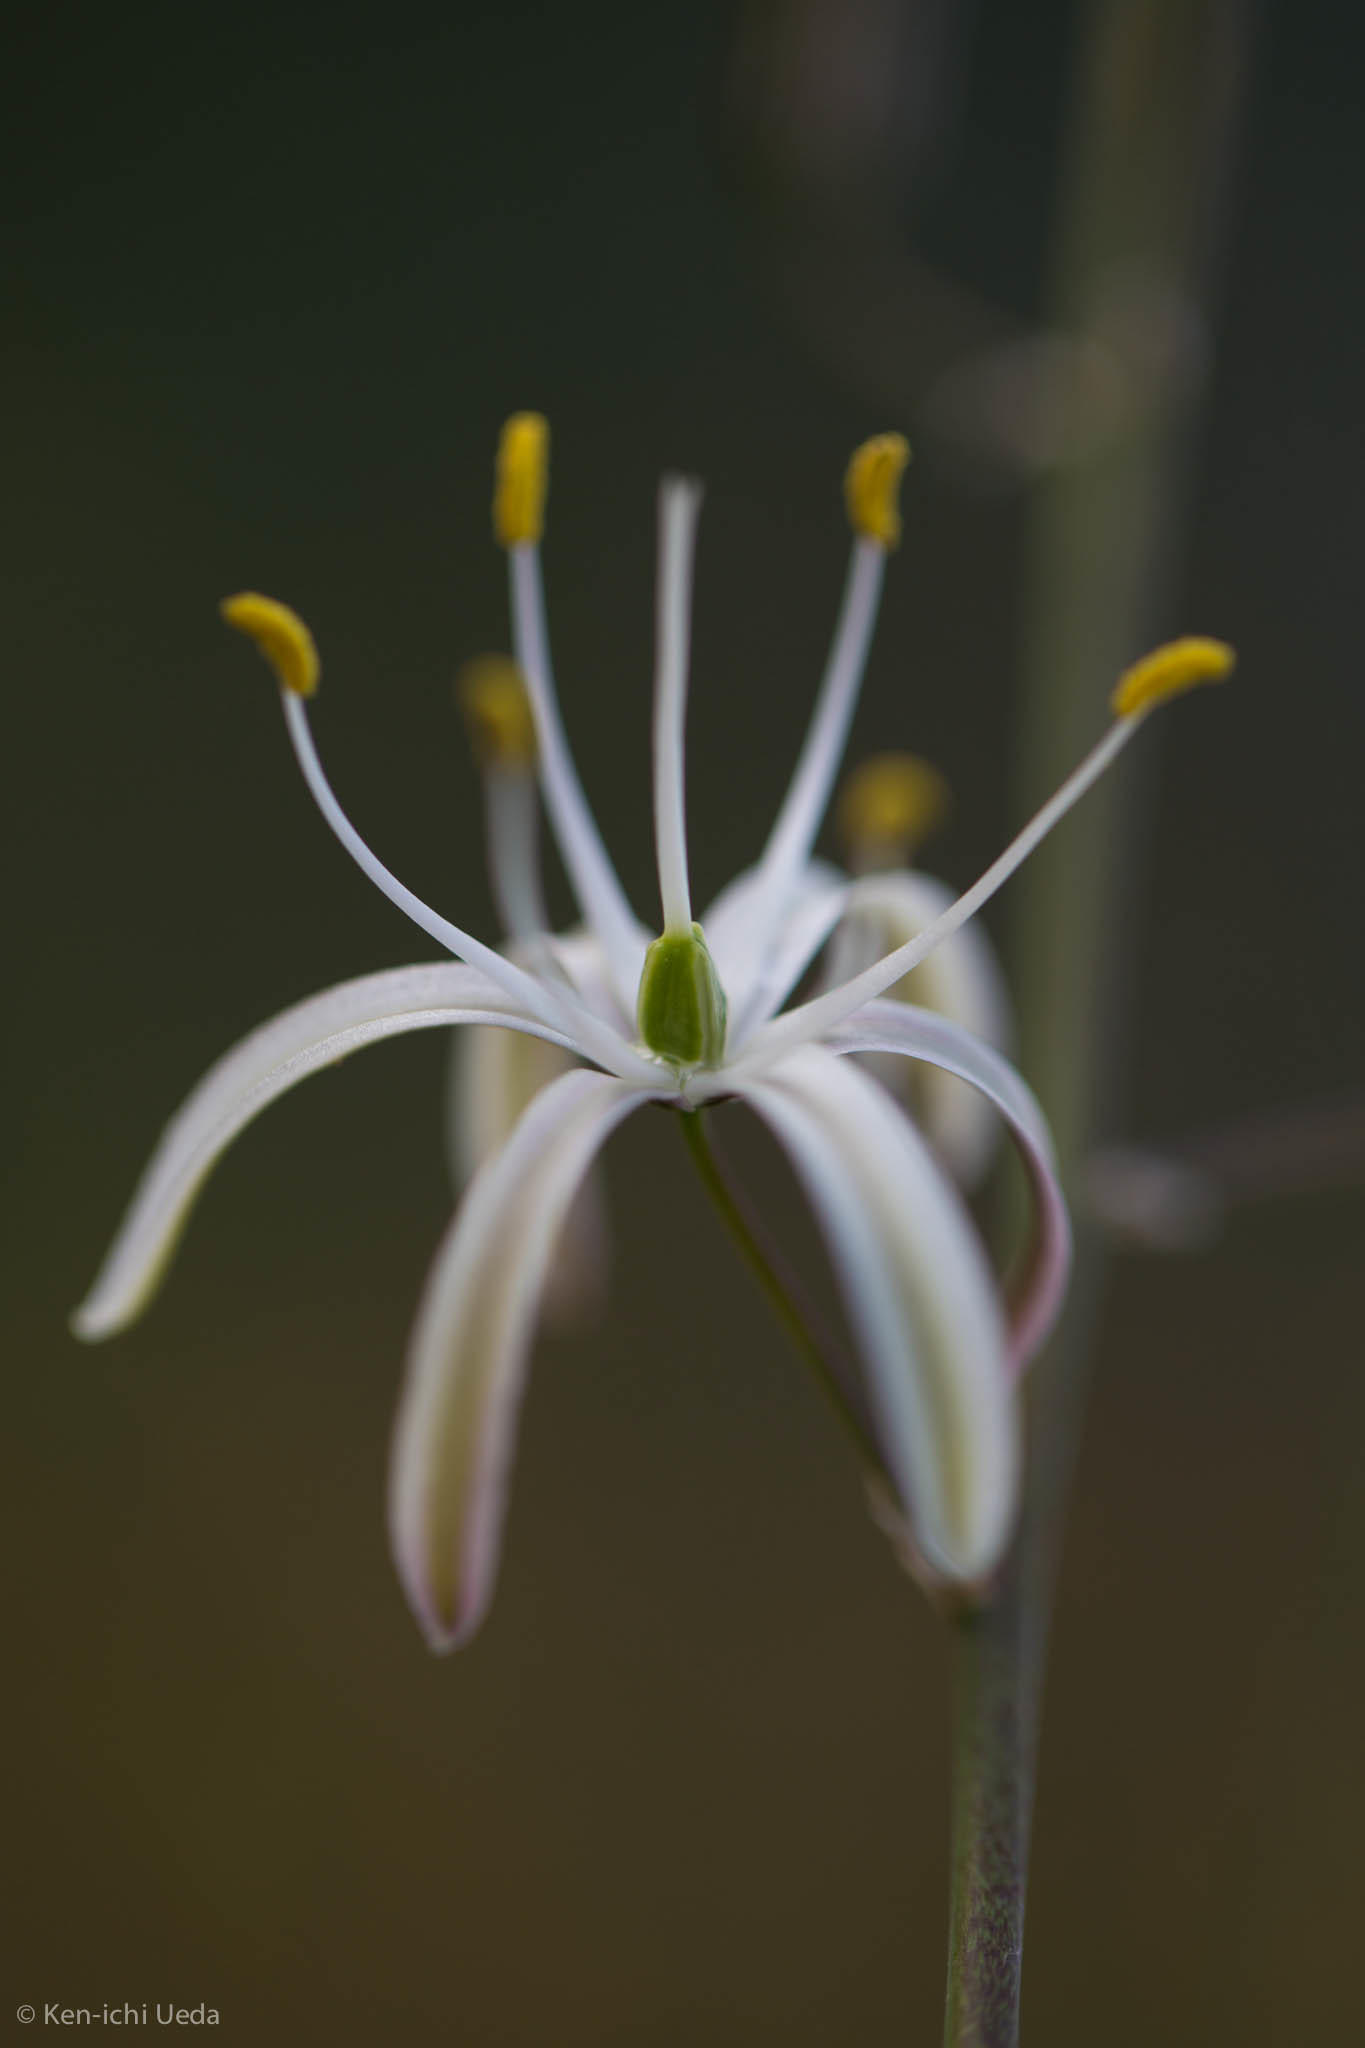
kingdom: Plantae
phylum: Tracheophyta
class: Liliopsida
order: Asparagales
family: Asparagaceae
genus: Chlorogalum
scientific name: Chlorogalum pomeridianum
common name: Amole
